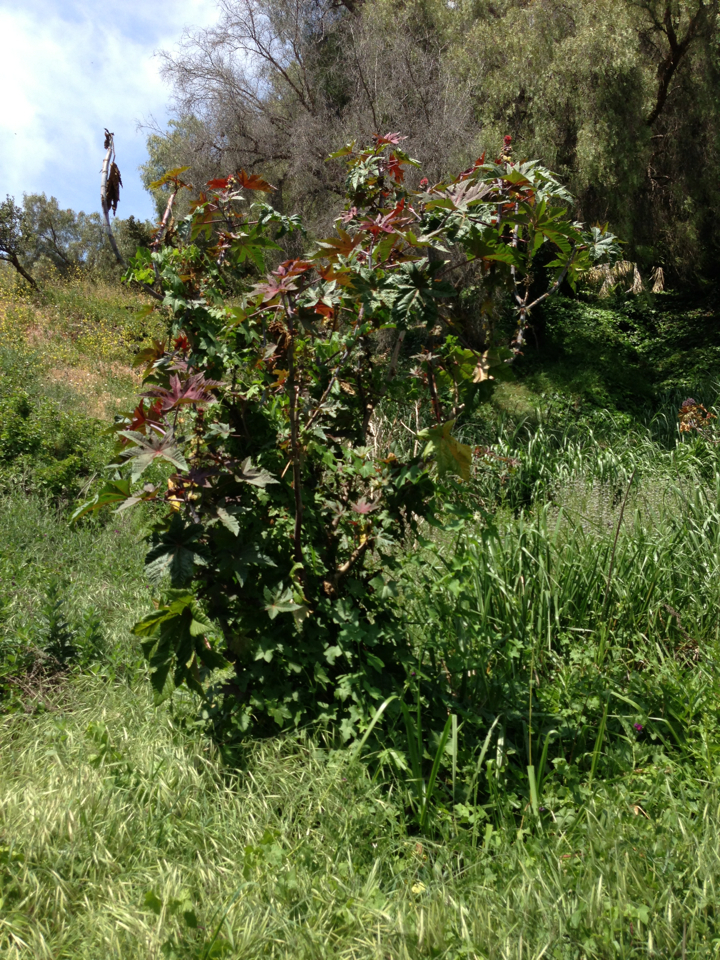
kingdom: Plantae
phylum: Tracheophyta
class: Magnoliopsida
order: Malpighiales
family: Euphorbiaceae
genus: Ricinus
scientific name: Ricinus communis
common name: Castor-oil-plant
